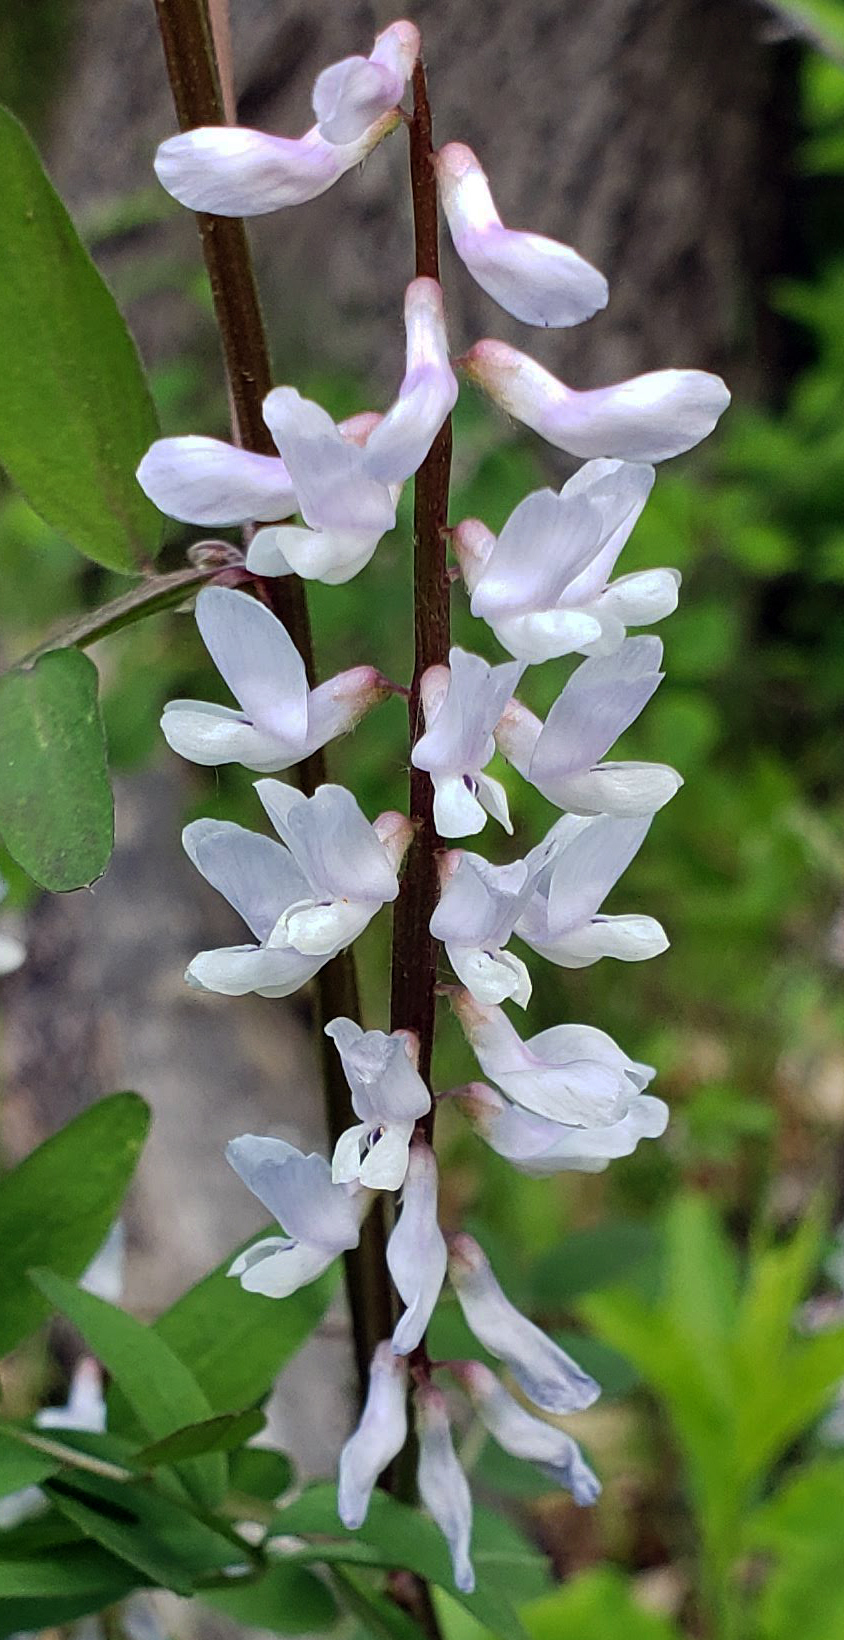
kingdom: Plantae
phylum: Tracheophyta
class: Magnoliopsida
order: Fabales
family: Fabaceae
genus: Vicia
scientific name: Vicia caroliniana
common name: Carolina vetch
